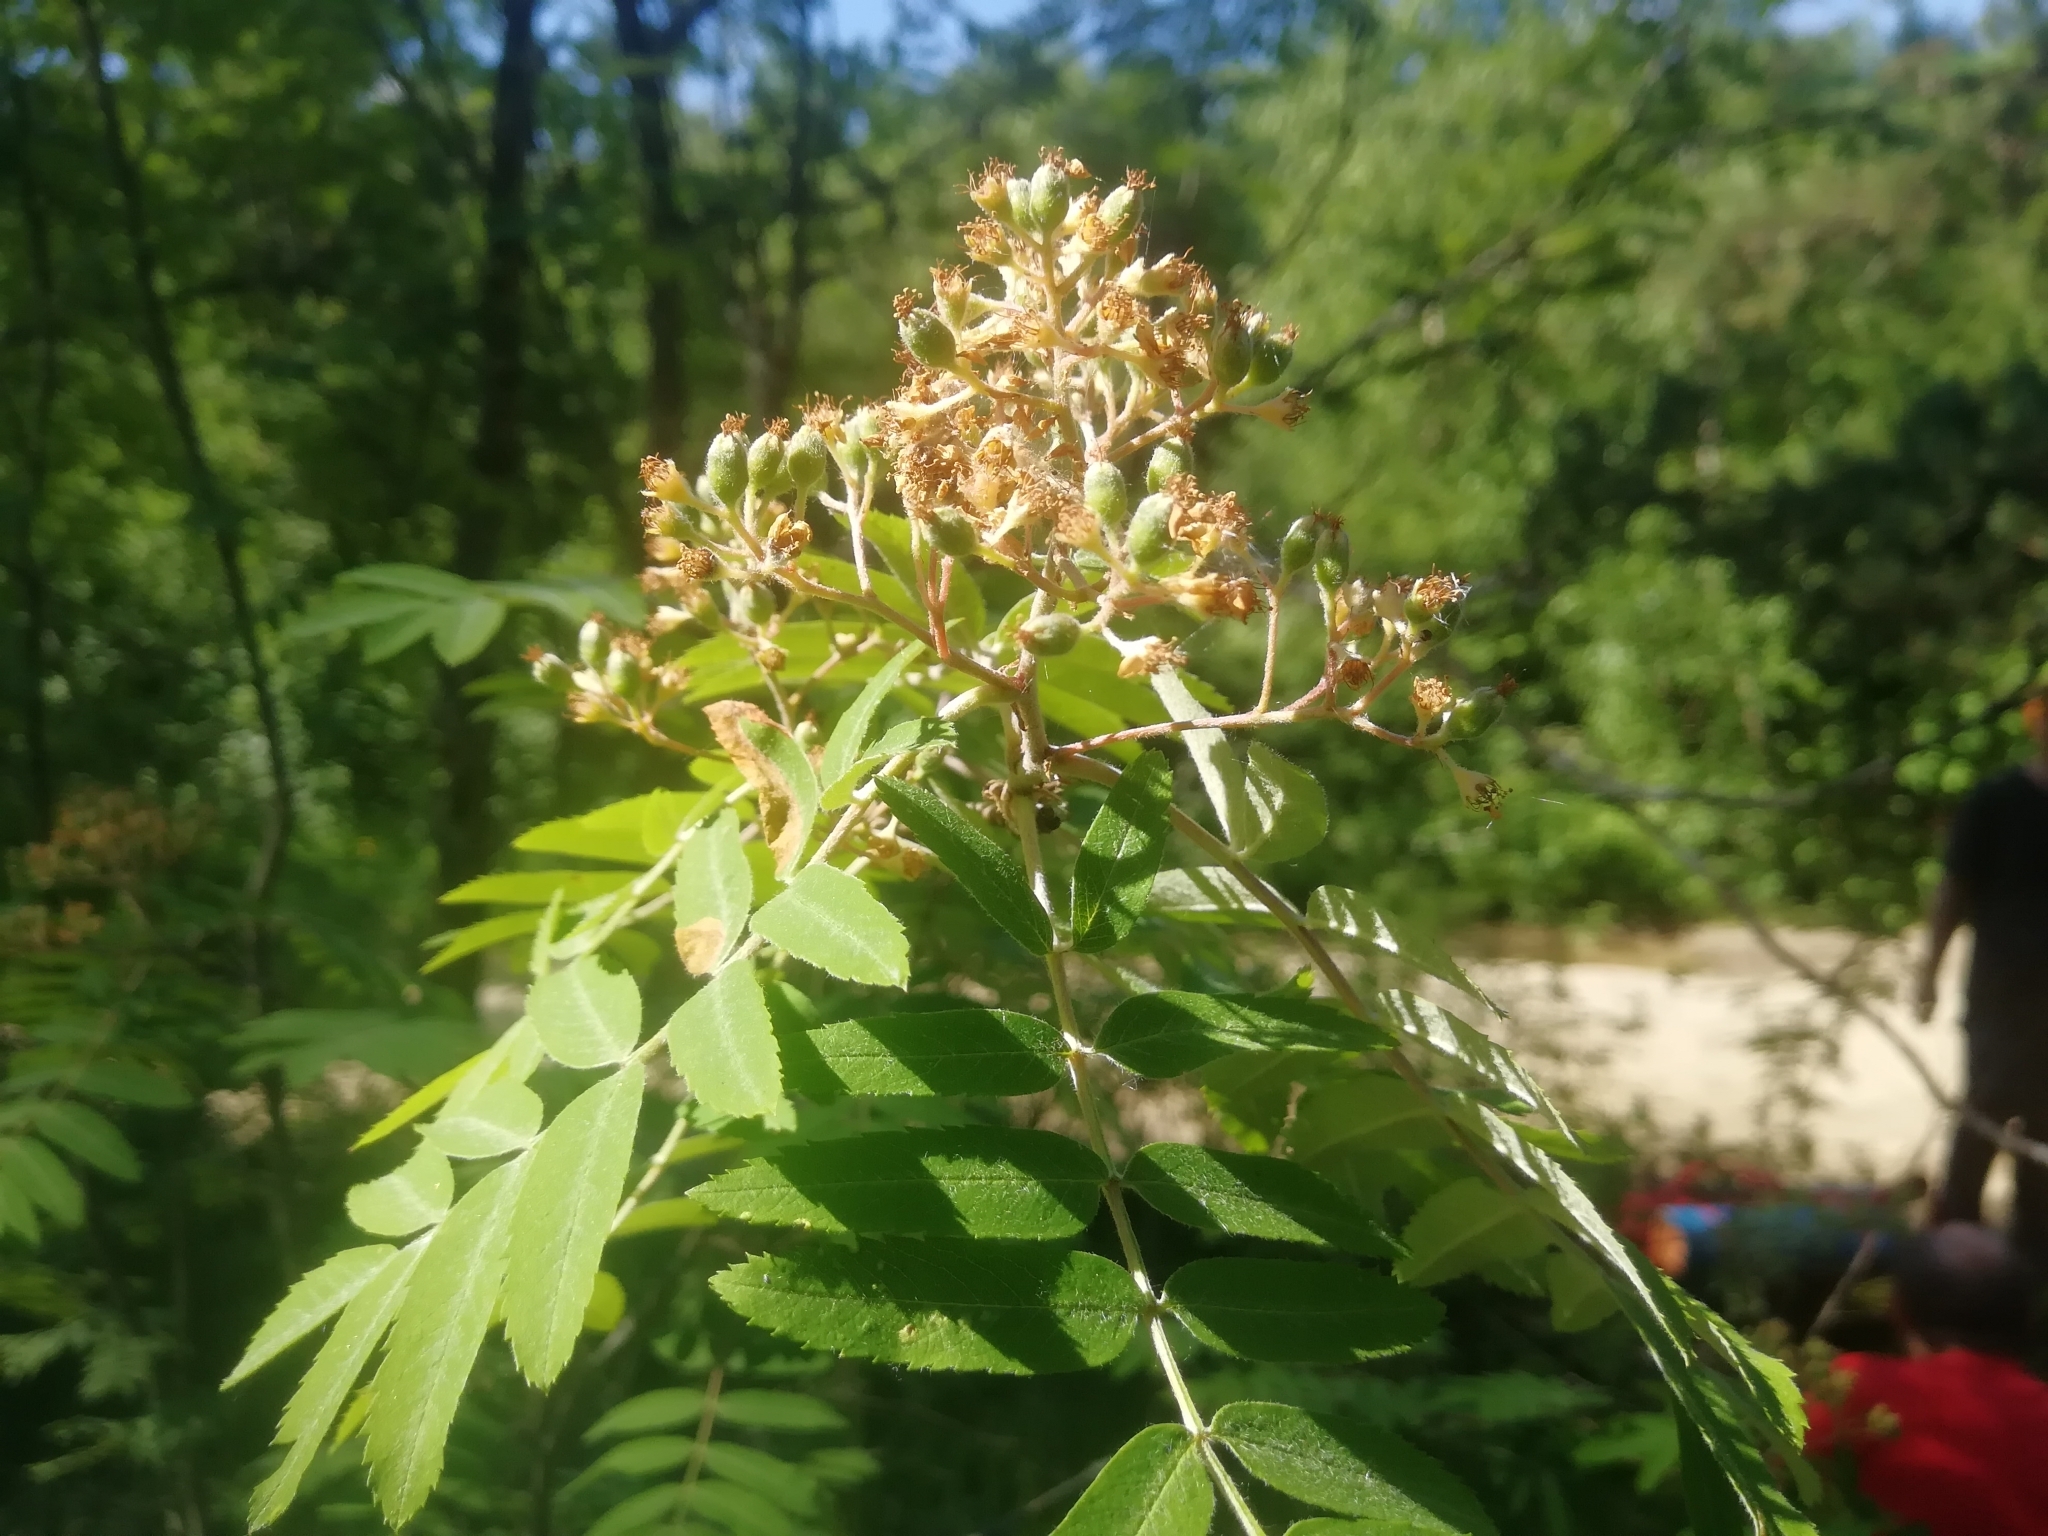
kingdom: Plantae
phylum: Tracheophyta
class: Magnoliopsida
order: Rosales
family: Rosaceae
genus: Sorbus
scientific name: Sorbus aucuparia
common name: Rowan
